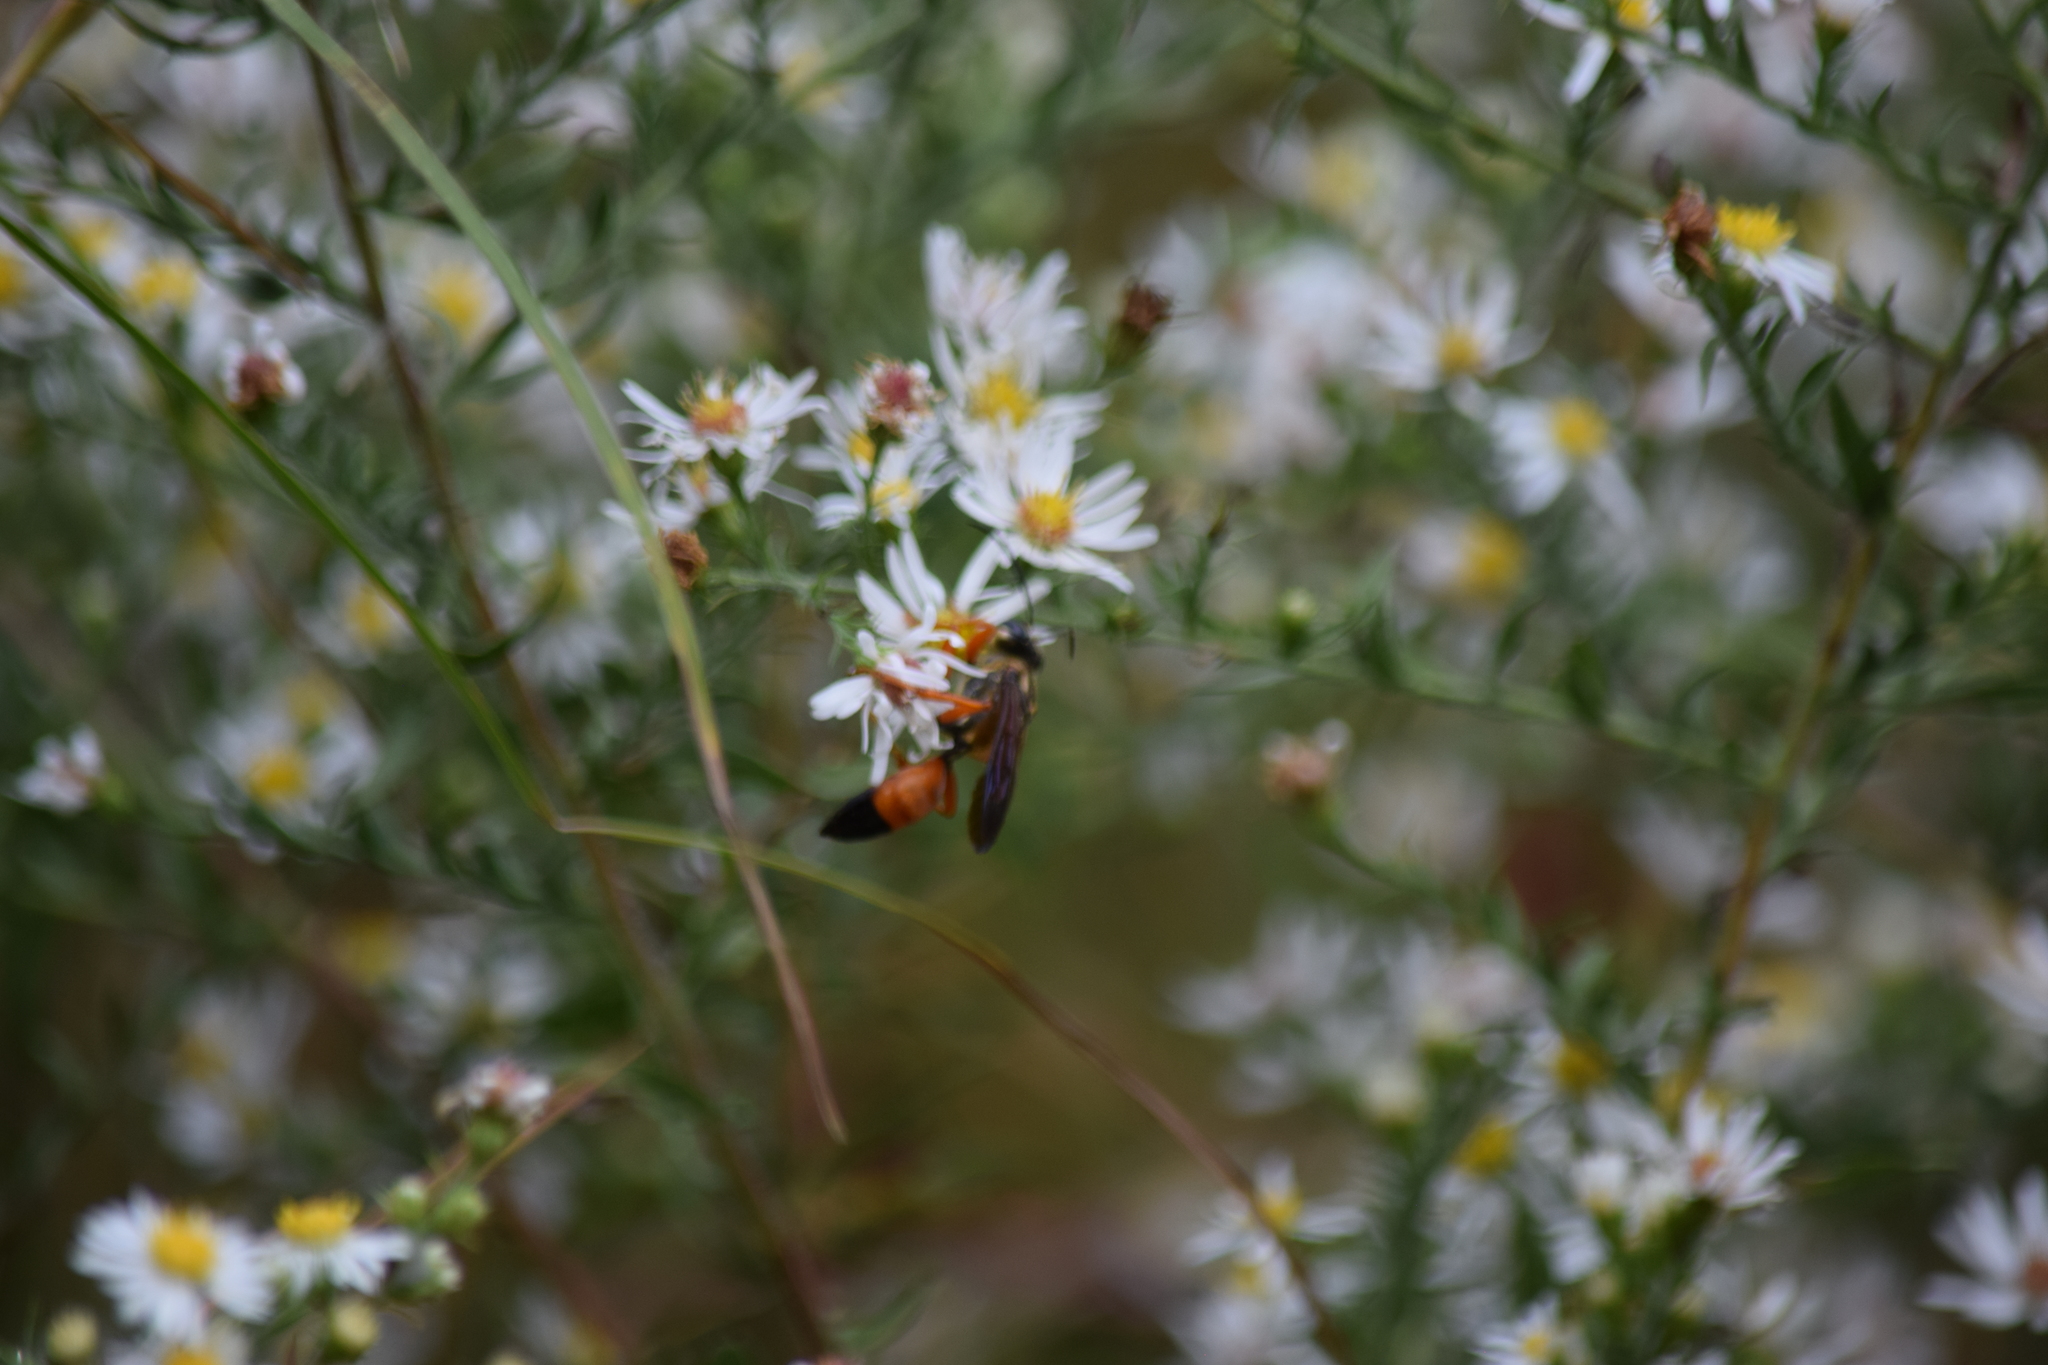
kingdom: Animalia
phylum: Arthropoda
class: Insecta
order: Hymenoptera
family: Sphecidae
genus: Sphex
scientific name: Sphex ichneumoneus
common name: Great golden digger wasp
